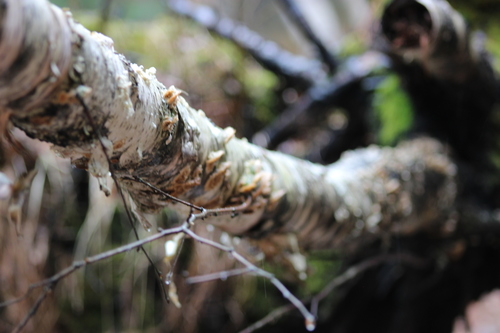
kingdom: Fungi
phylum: Basidiomycota
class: Agaricomycetes
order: Hymenochaetales
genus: Trichaptum
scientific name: Trichaptum biforme
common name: Violet-toothed polypore
